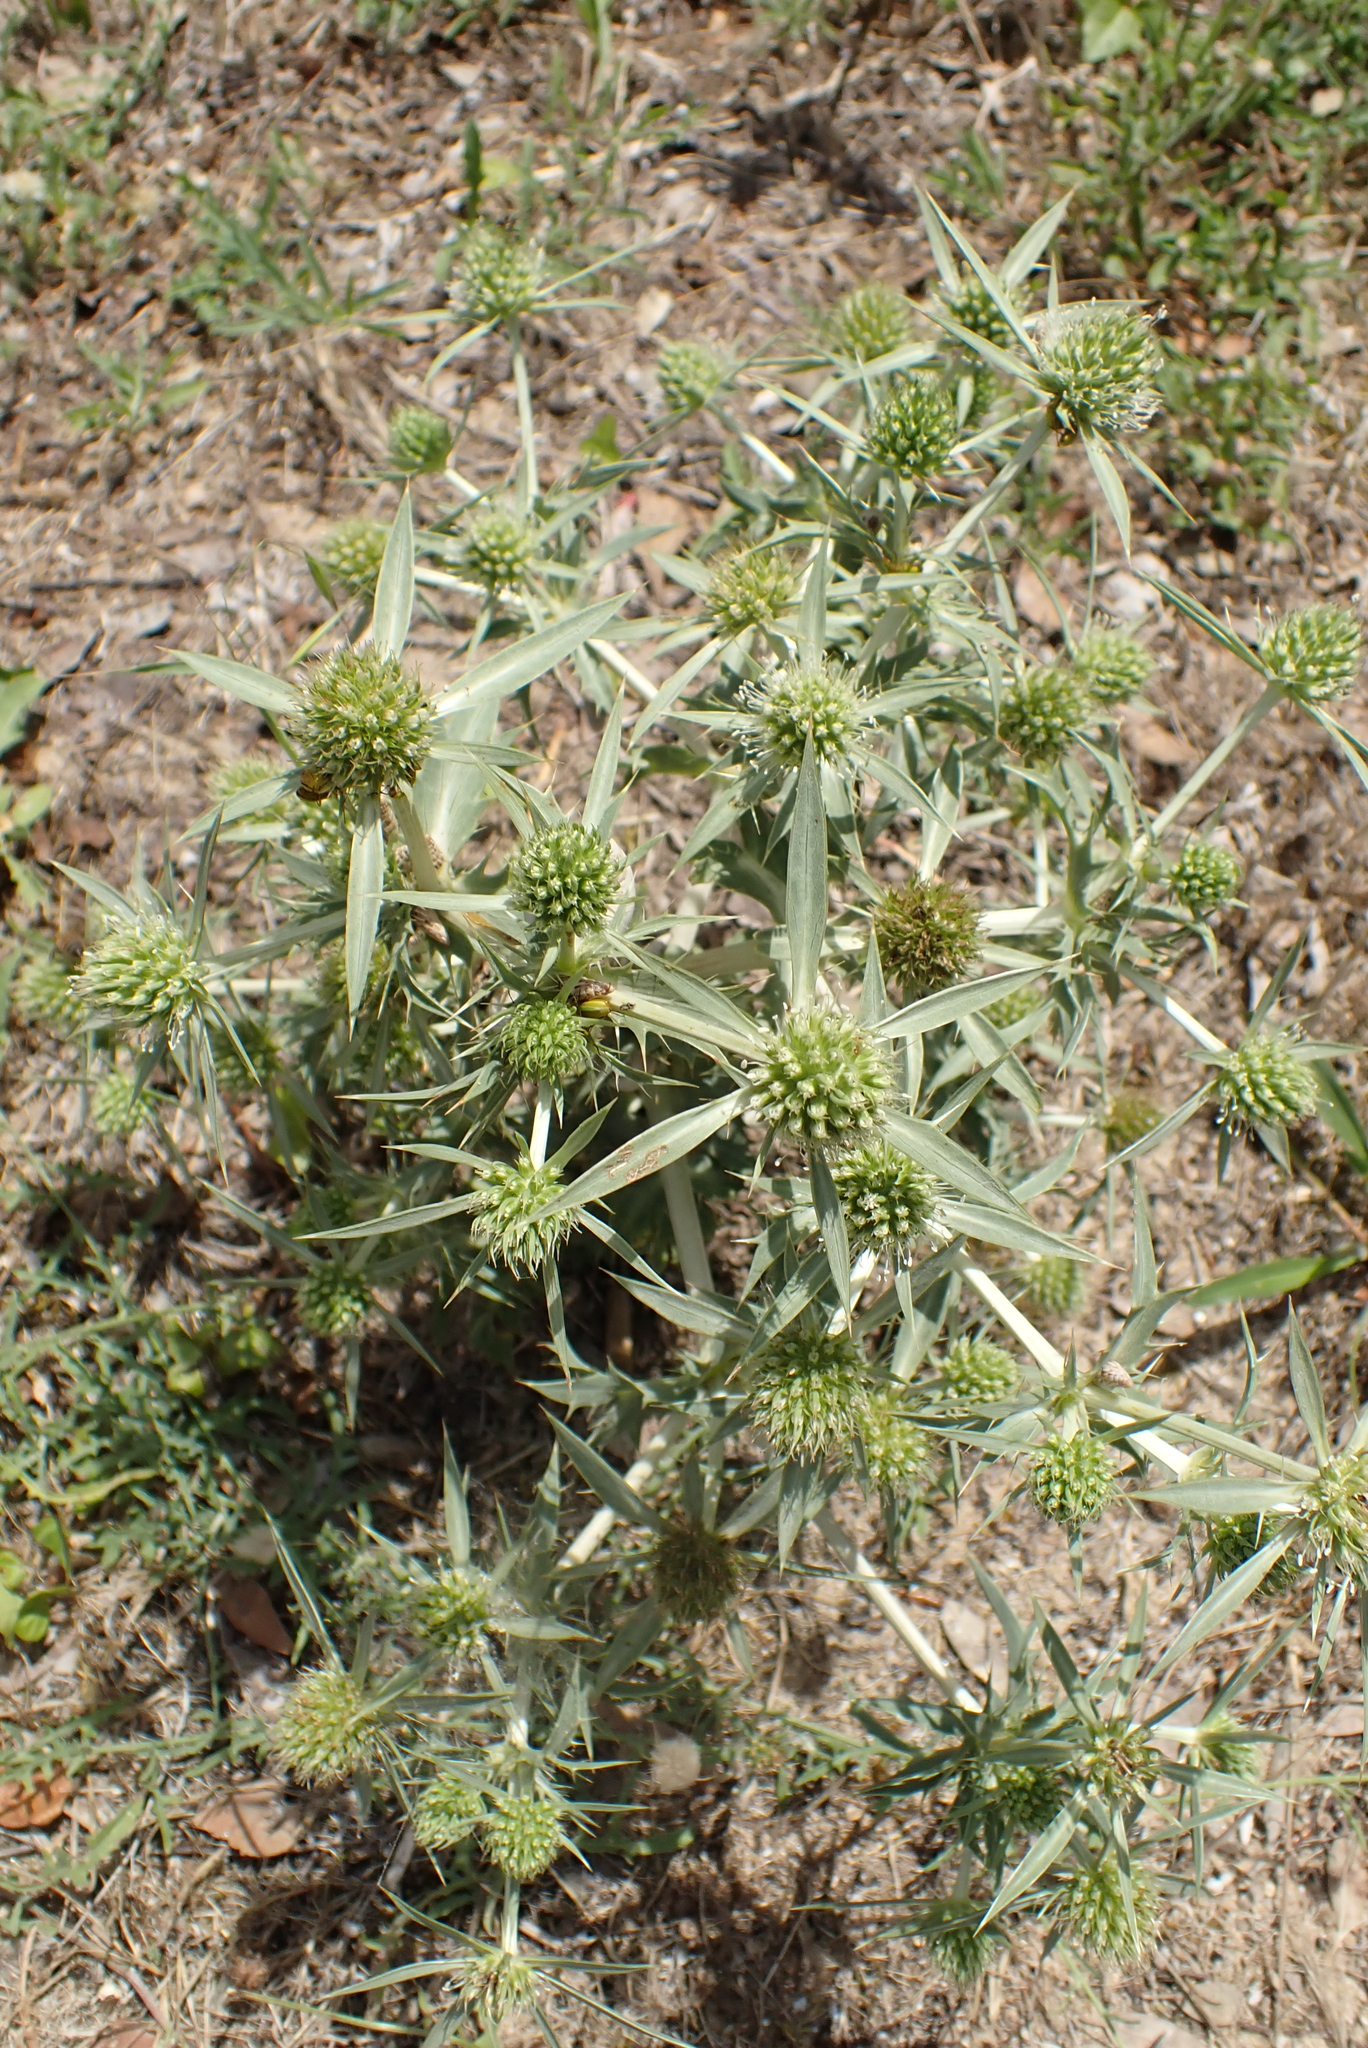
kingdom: Plantae
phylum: Tracheophyta
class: Magnoliopsida
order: Apiales
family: Apiaceae
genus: Eryngium
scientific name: Eryngium campestre
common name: Field eryngo
